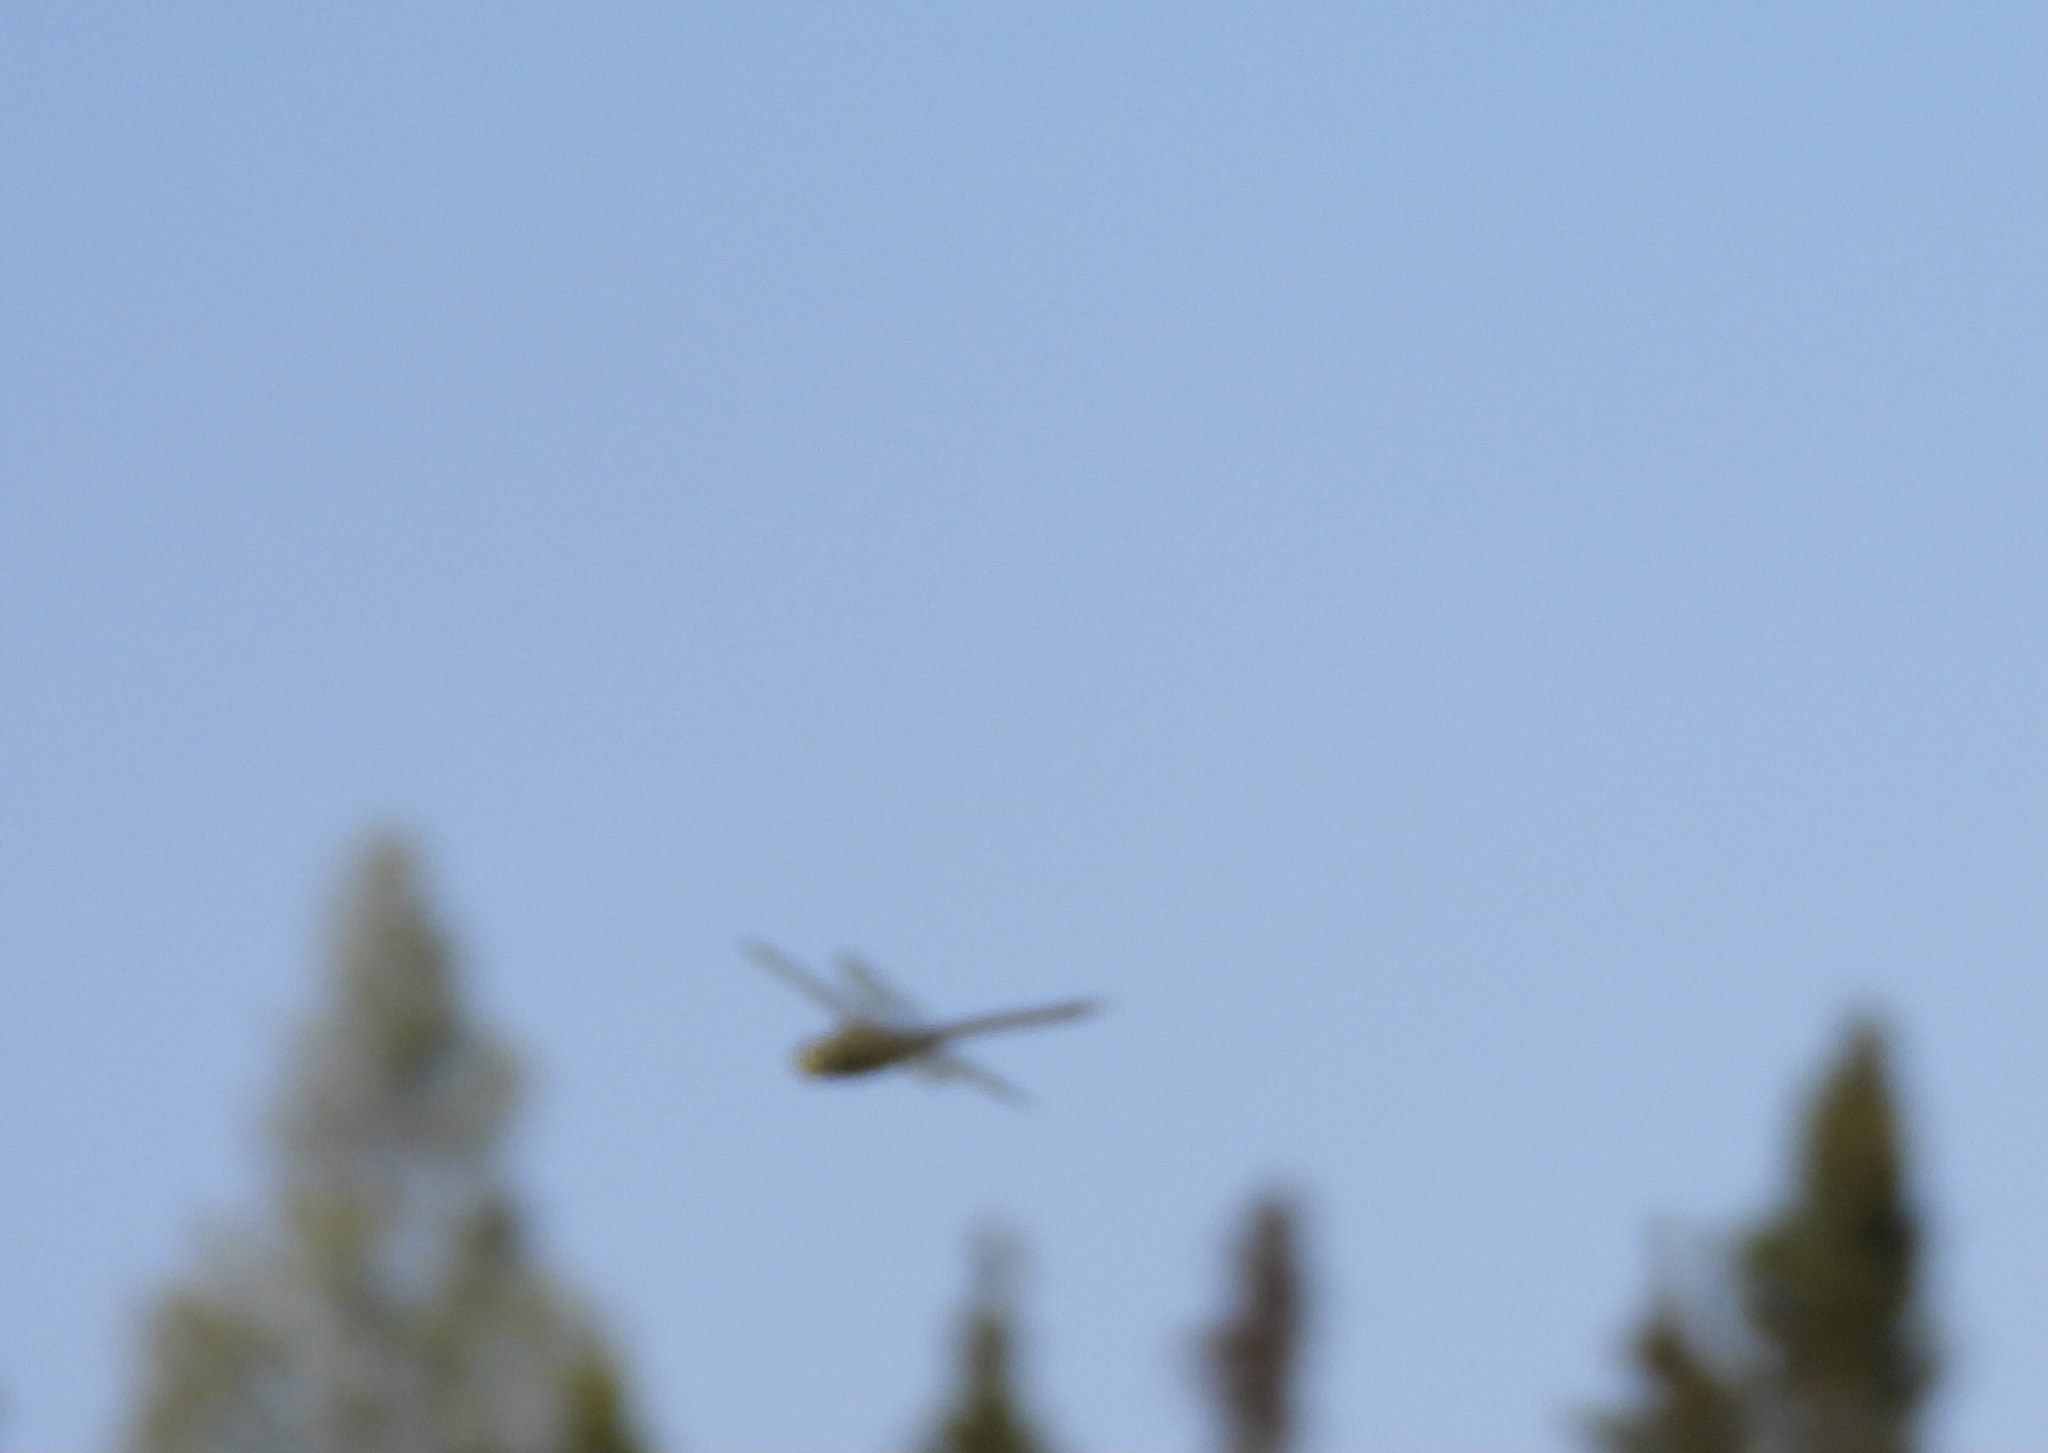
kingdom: Animalia
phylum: Arthropoda
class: Insecta
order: Odonata
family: Aeshnidae
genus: Anax
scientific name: Anax junius
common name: Common green darner
